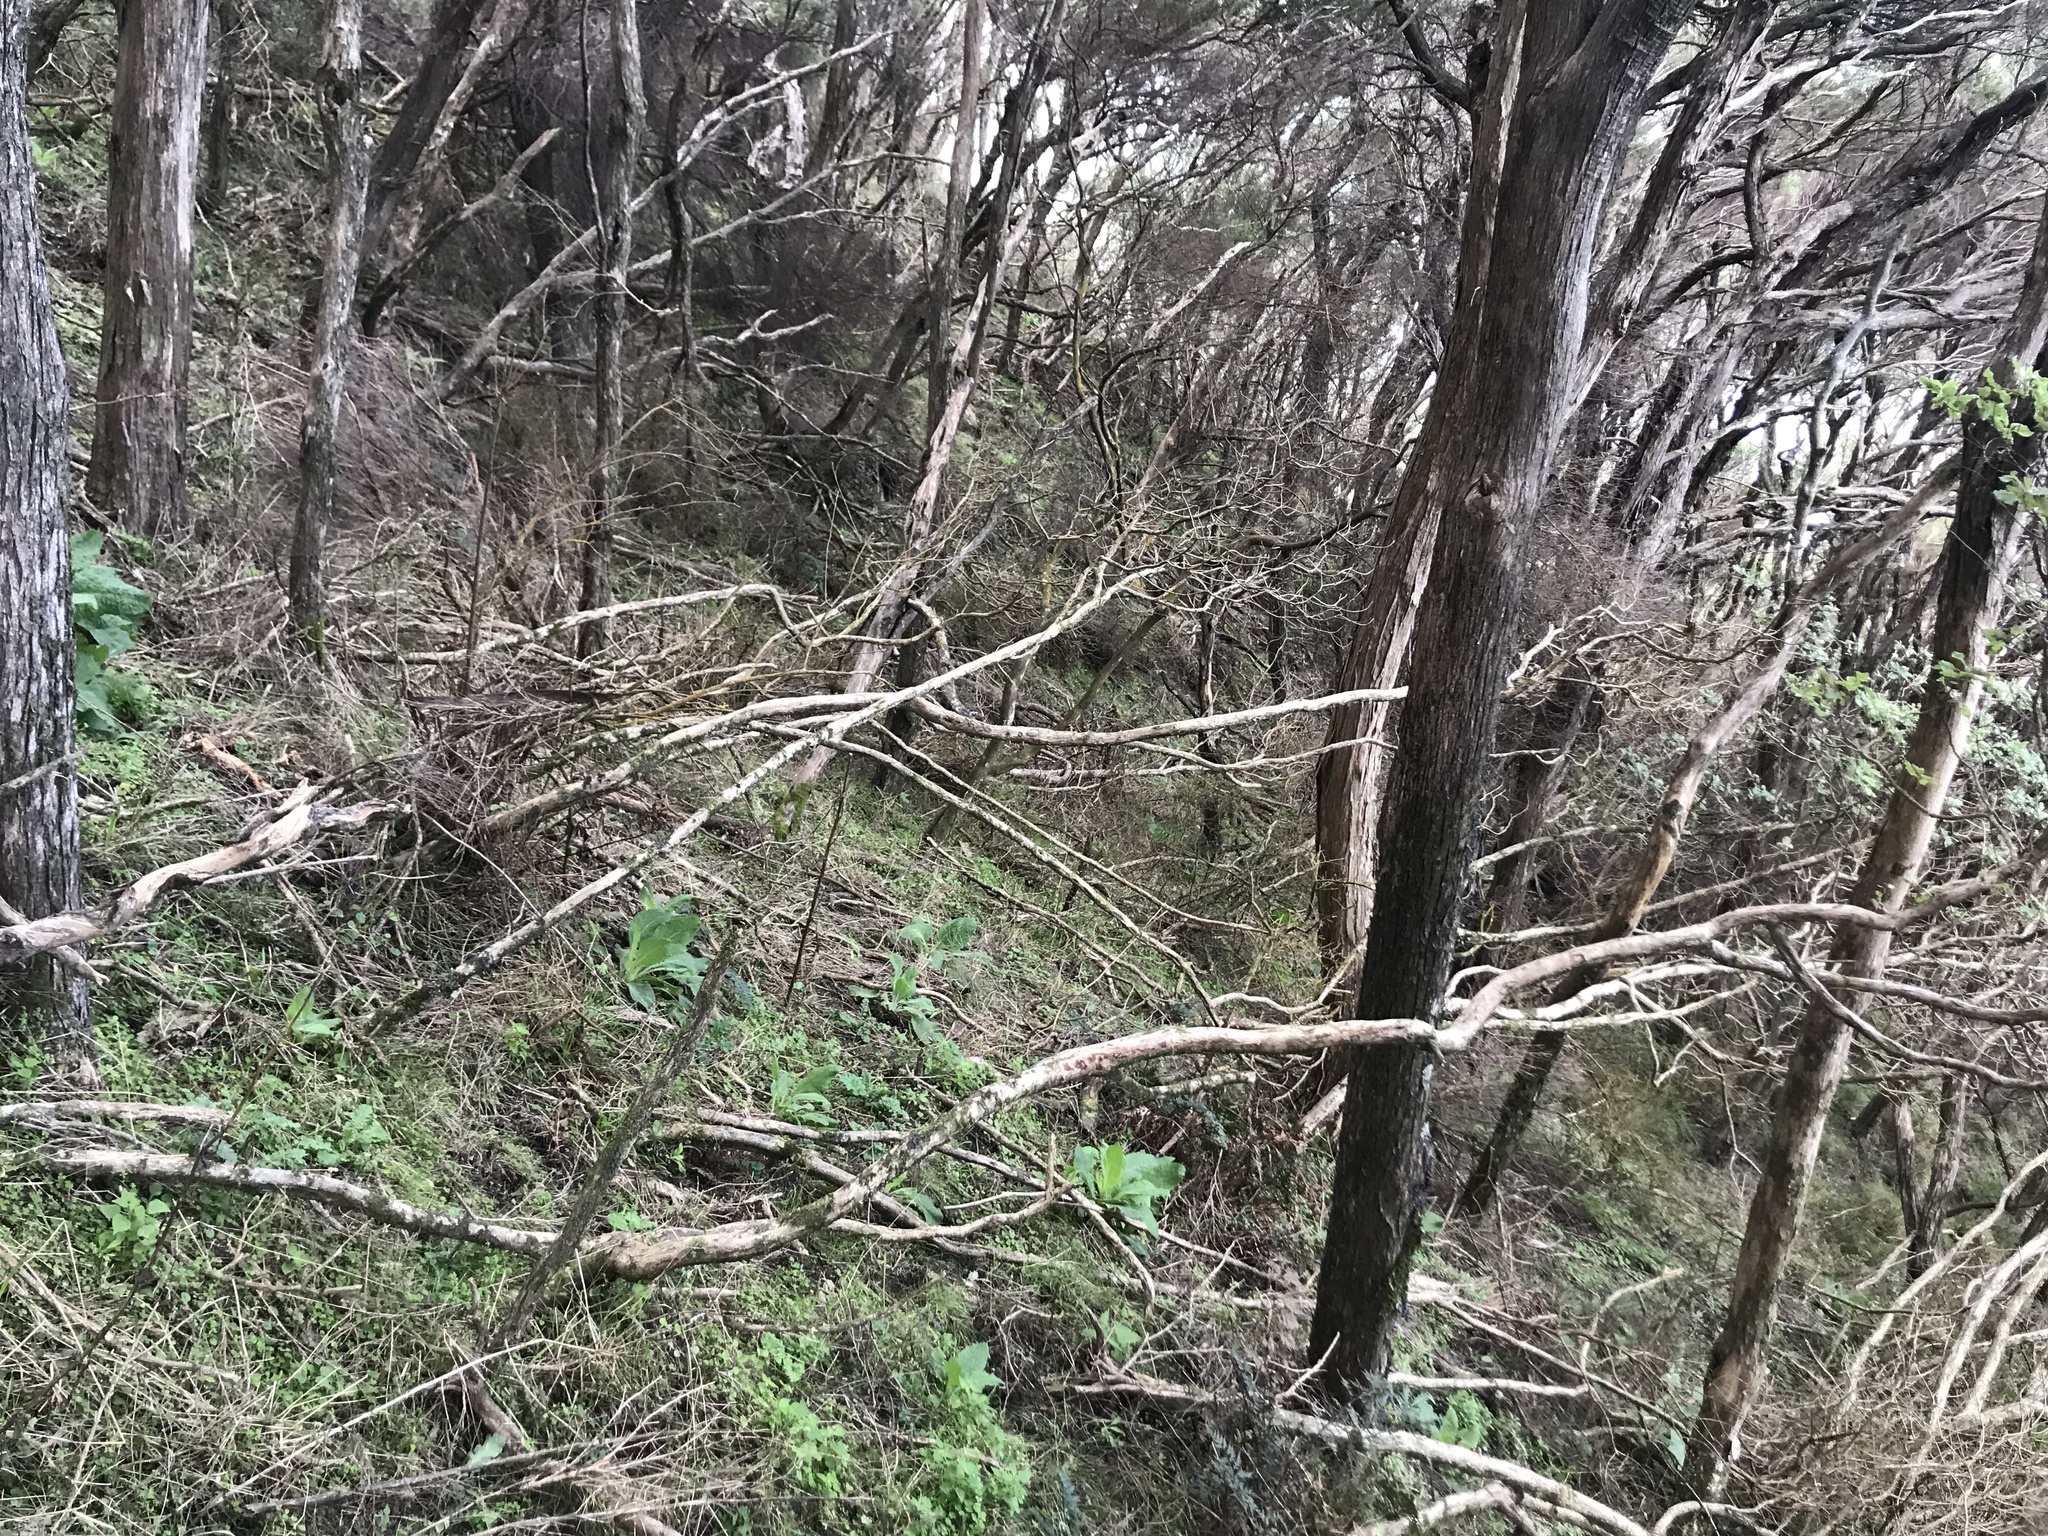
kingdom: Plantae
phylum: Tracheophyta
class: Magnoliopsida
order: Asterales
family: Asteraceae
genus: Brachyglottis
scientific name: Brachyglottis pentacopa
